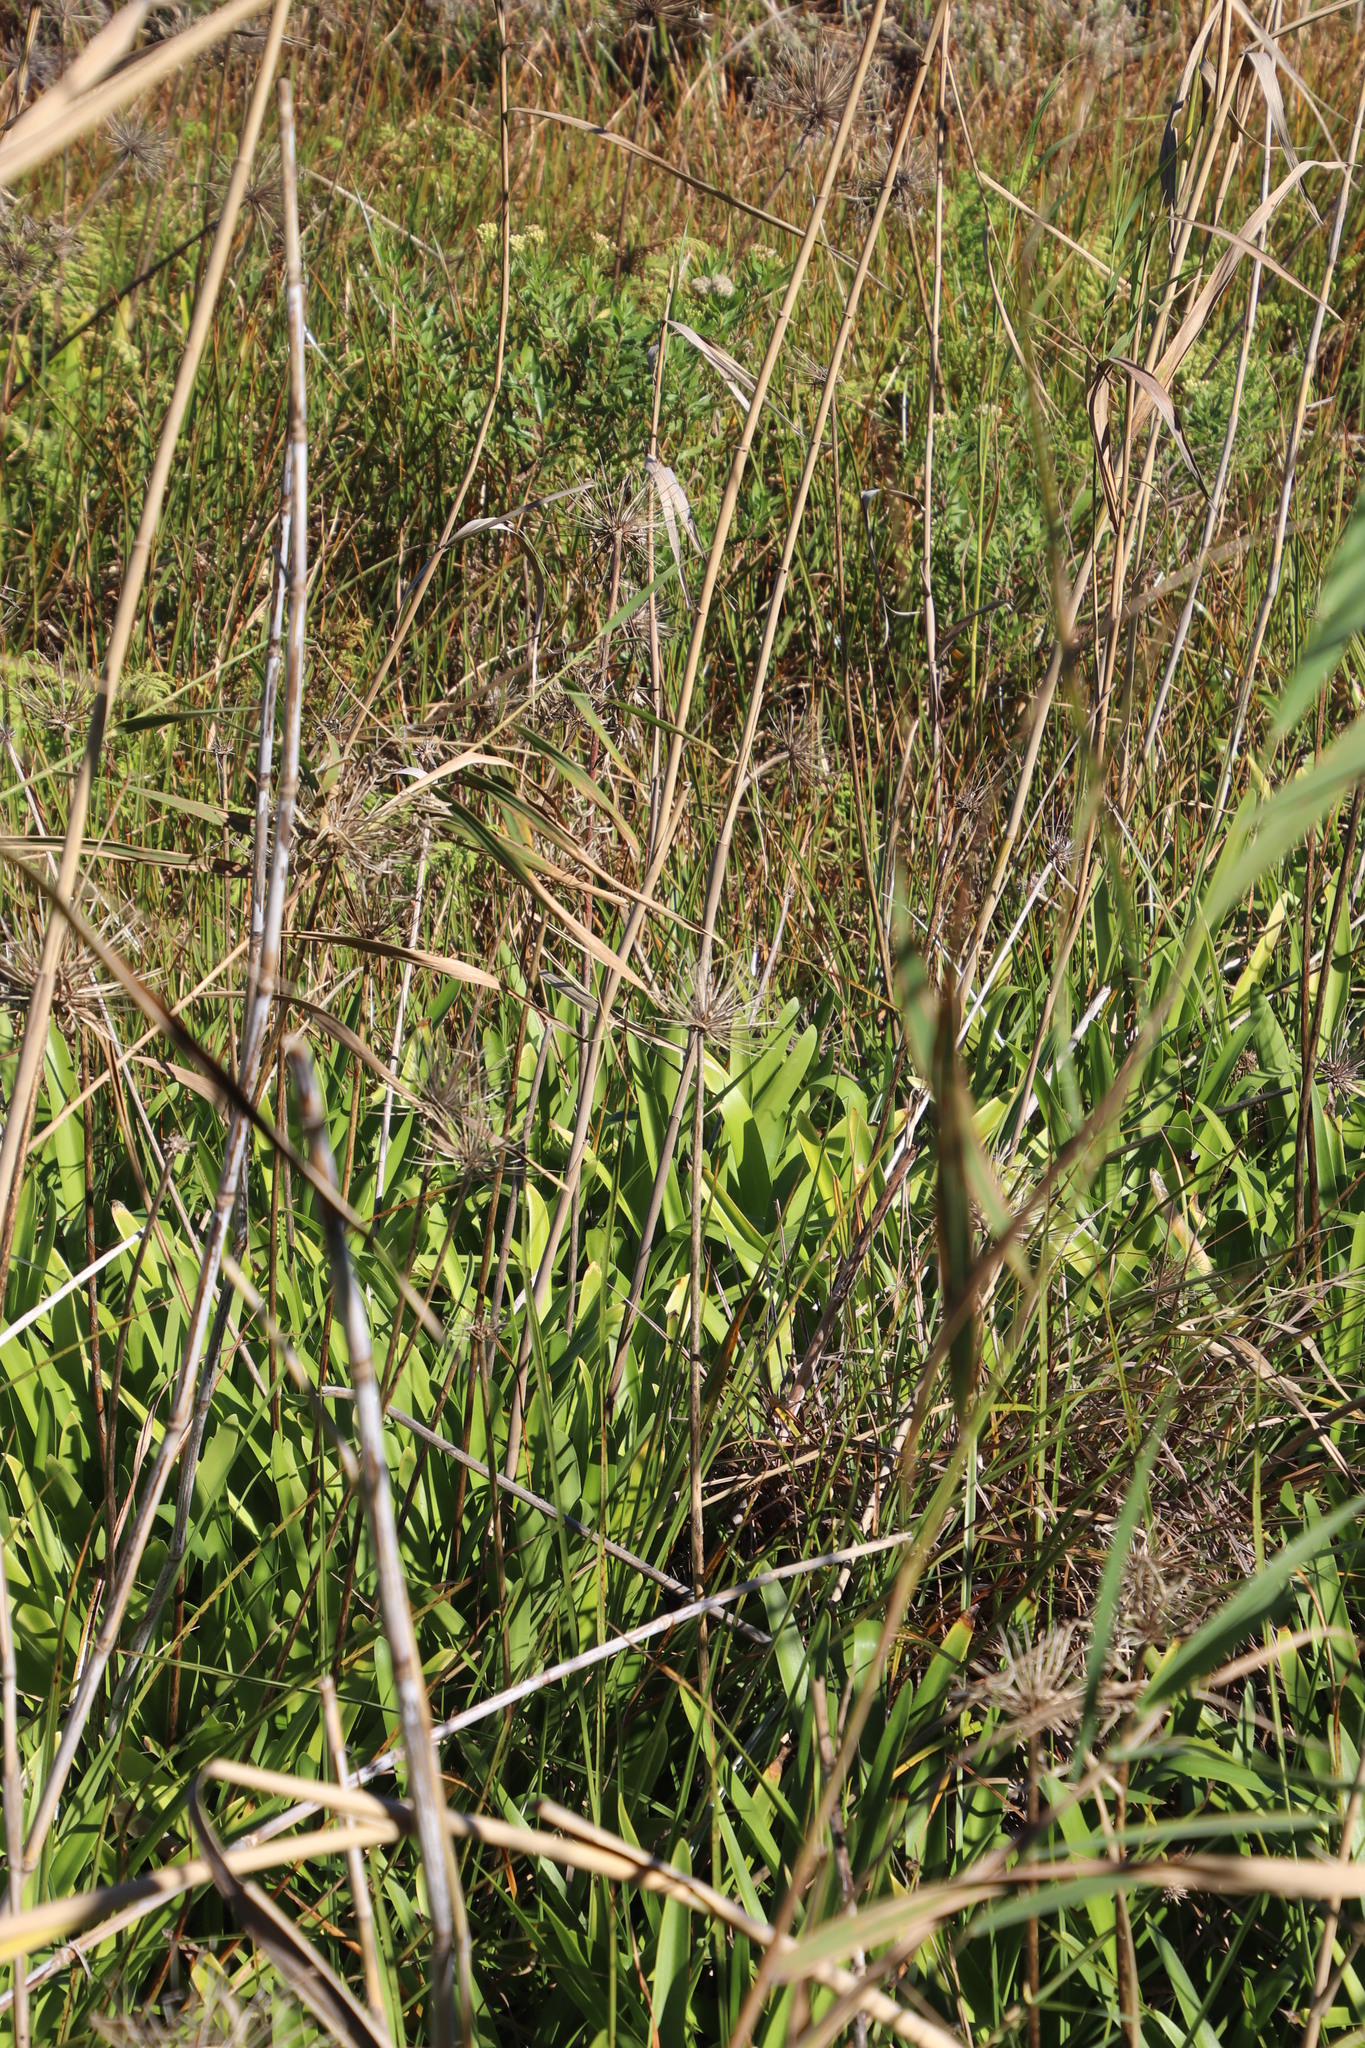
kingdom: Plantae
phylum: Tracheophyta
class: Liliopsida
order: Asparagales
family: Amaryllidaceae
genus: Agapanthus
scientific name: Agapanthus praecox
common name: African-lily
